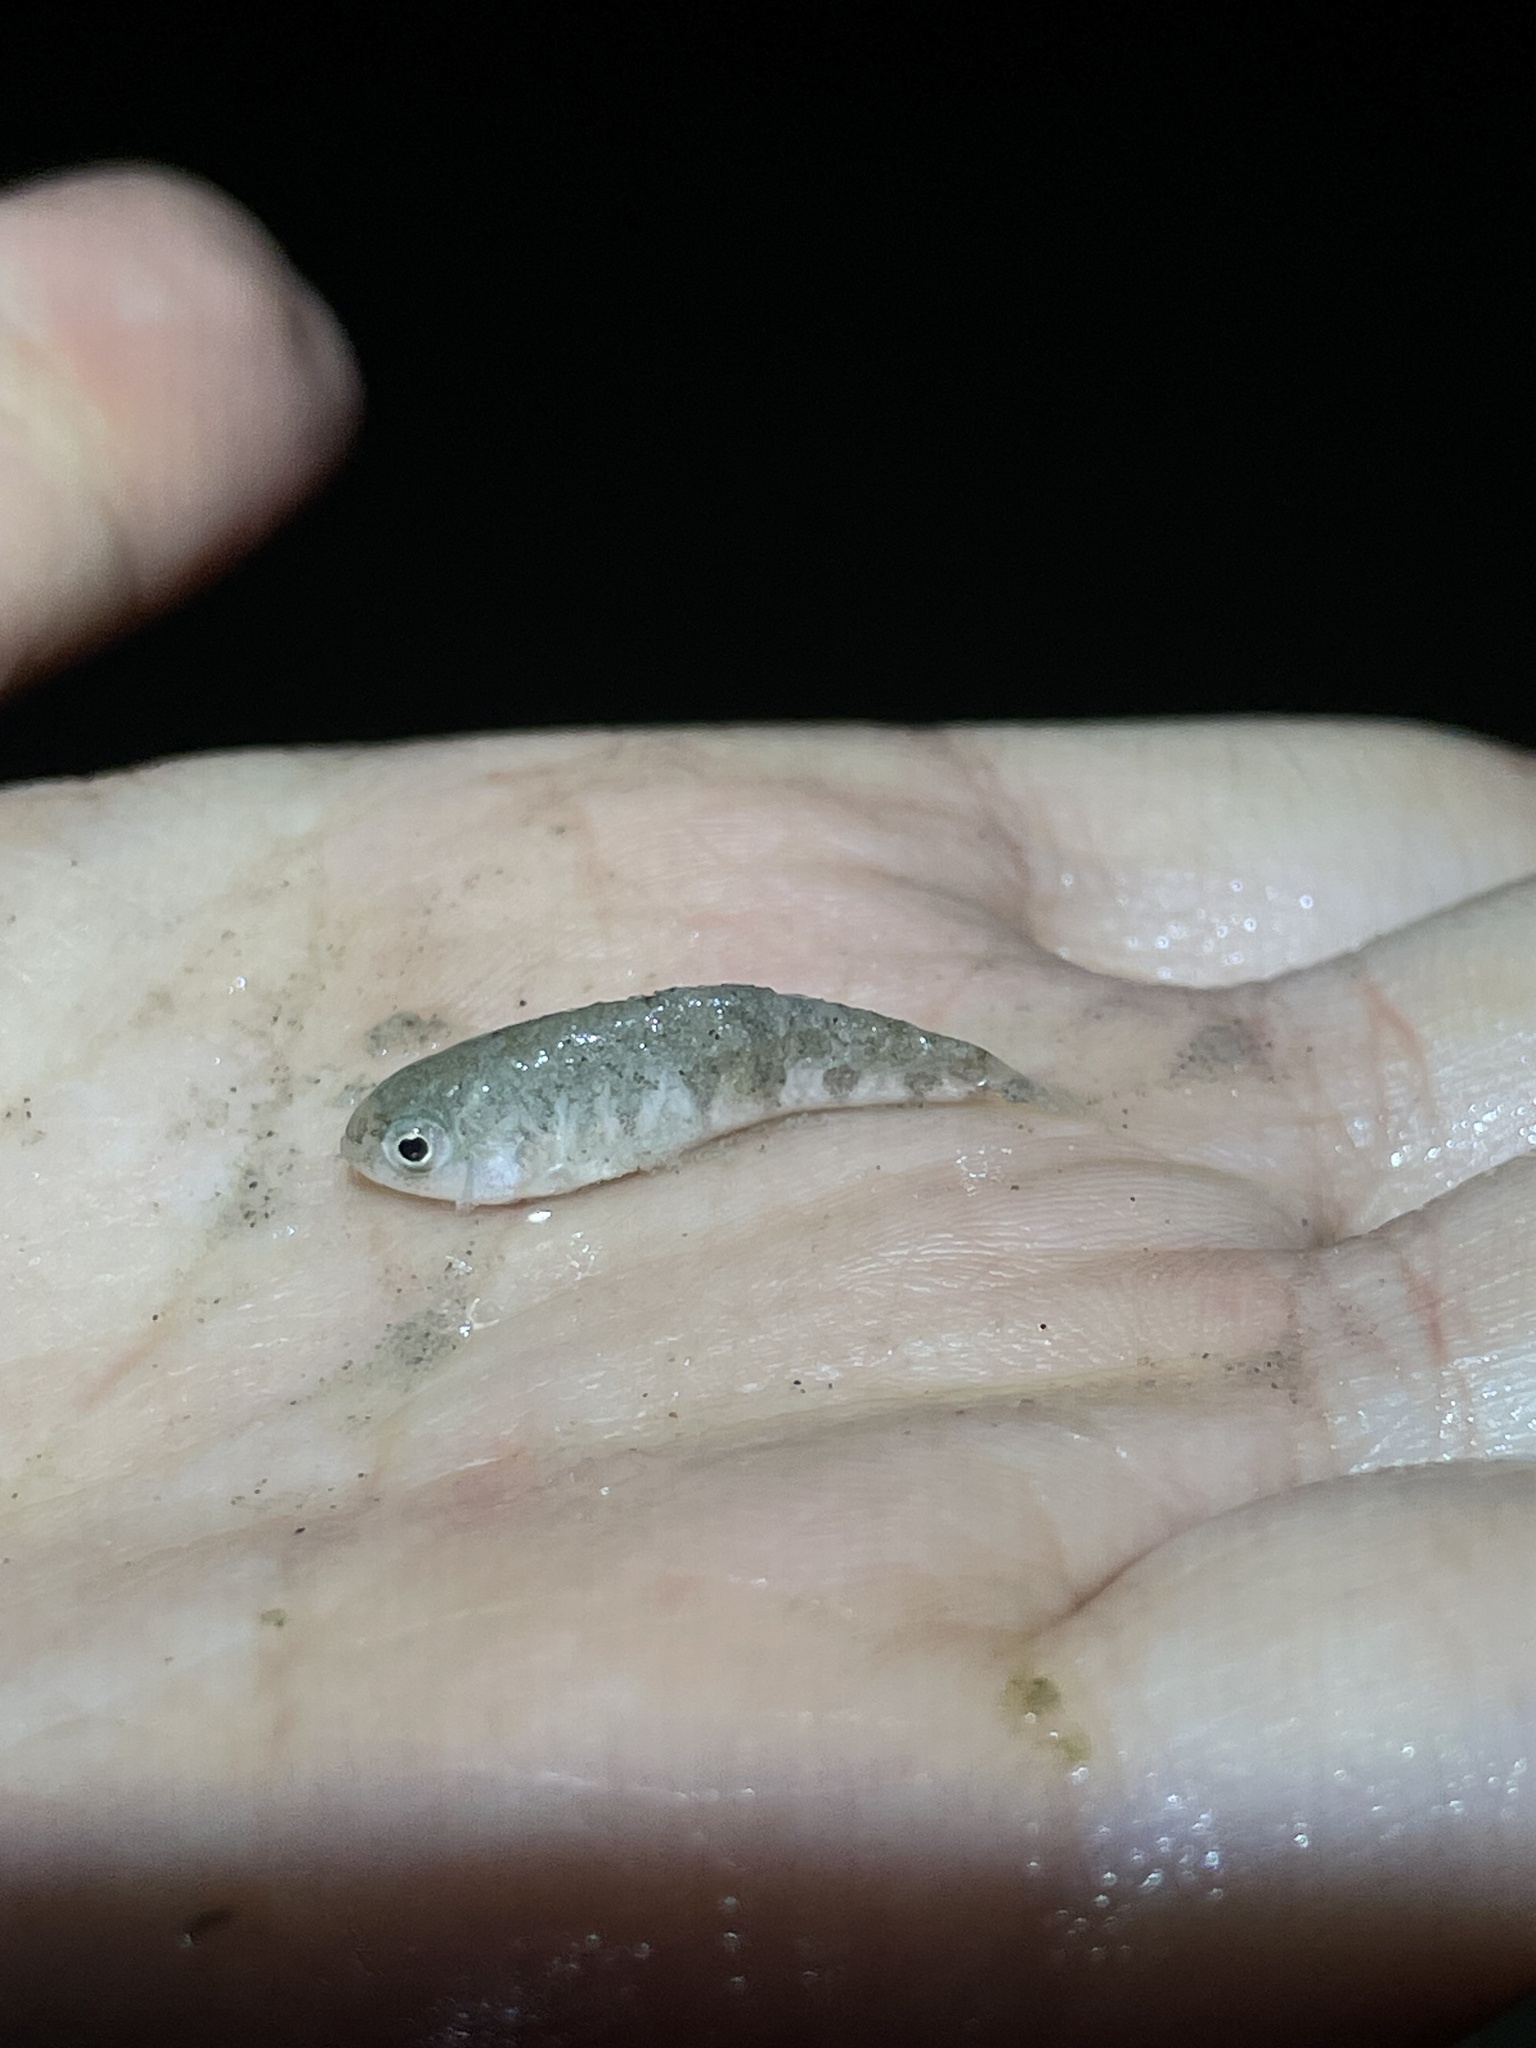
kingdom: Animalia
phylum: Chordata
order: Cyprinodontiformes
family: Cyprinodontidae
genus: Cyprinodon
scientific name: Cyprinodon variegatus
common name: Sheepshead minnow
